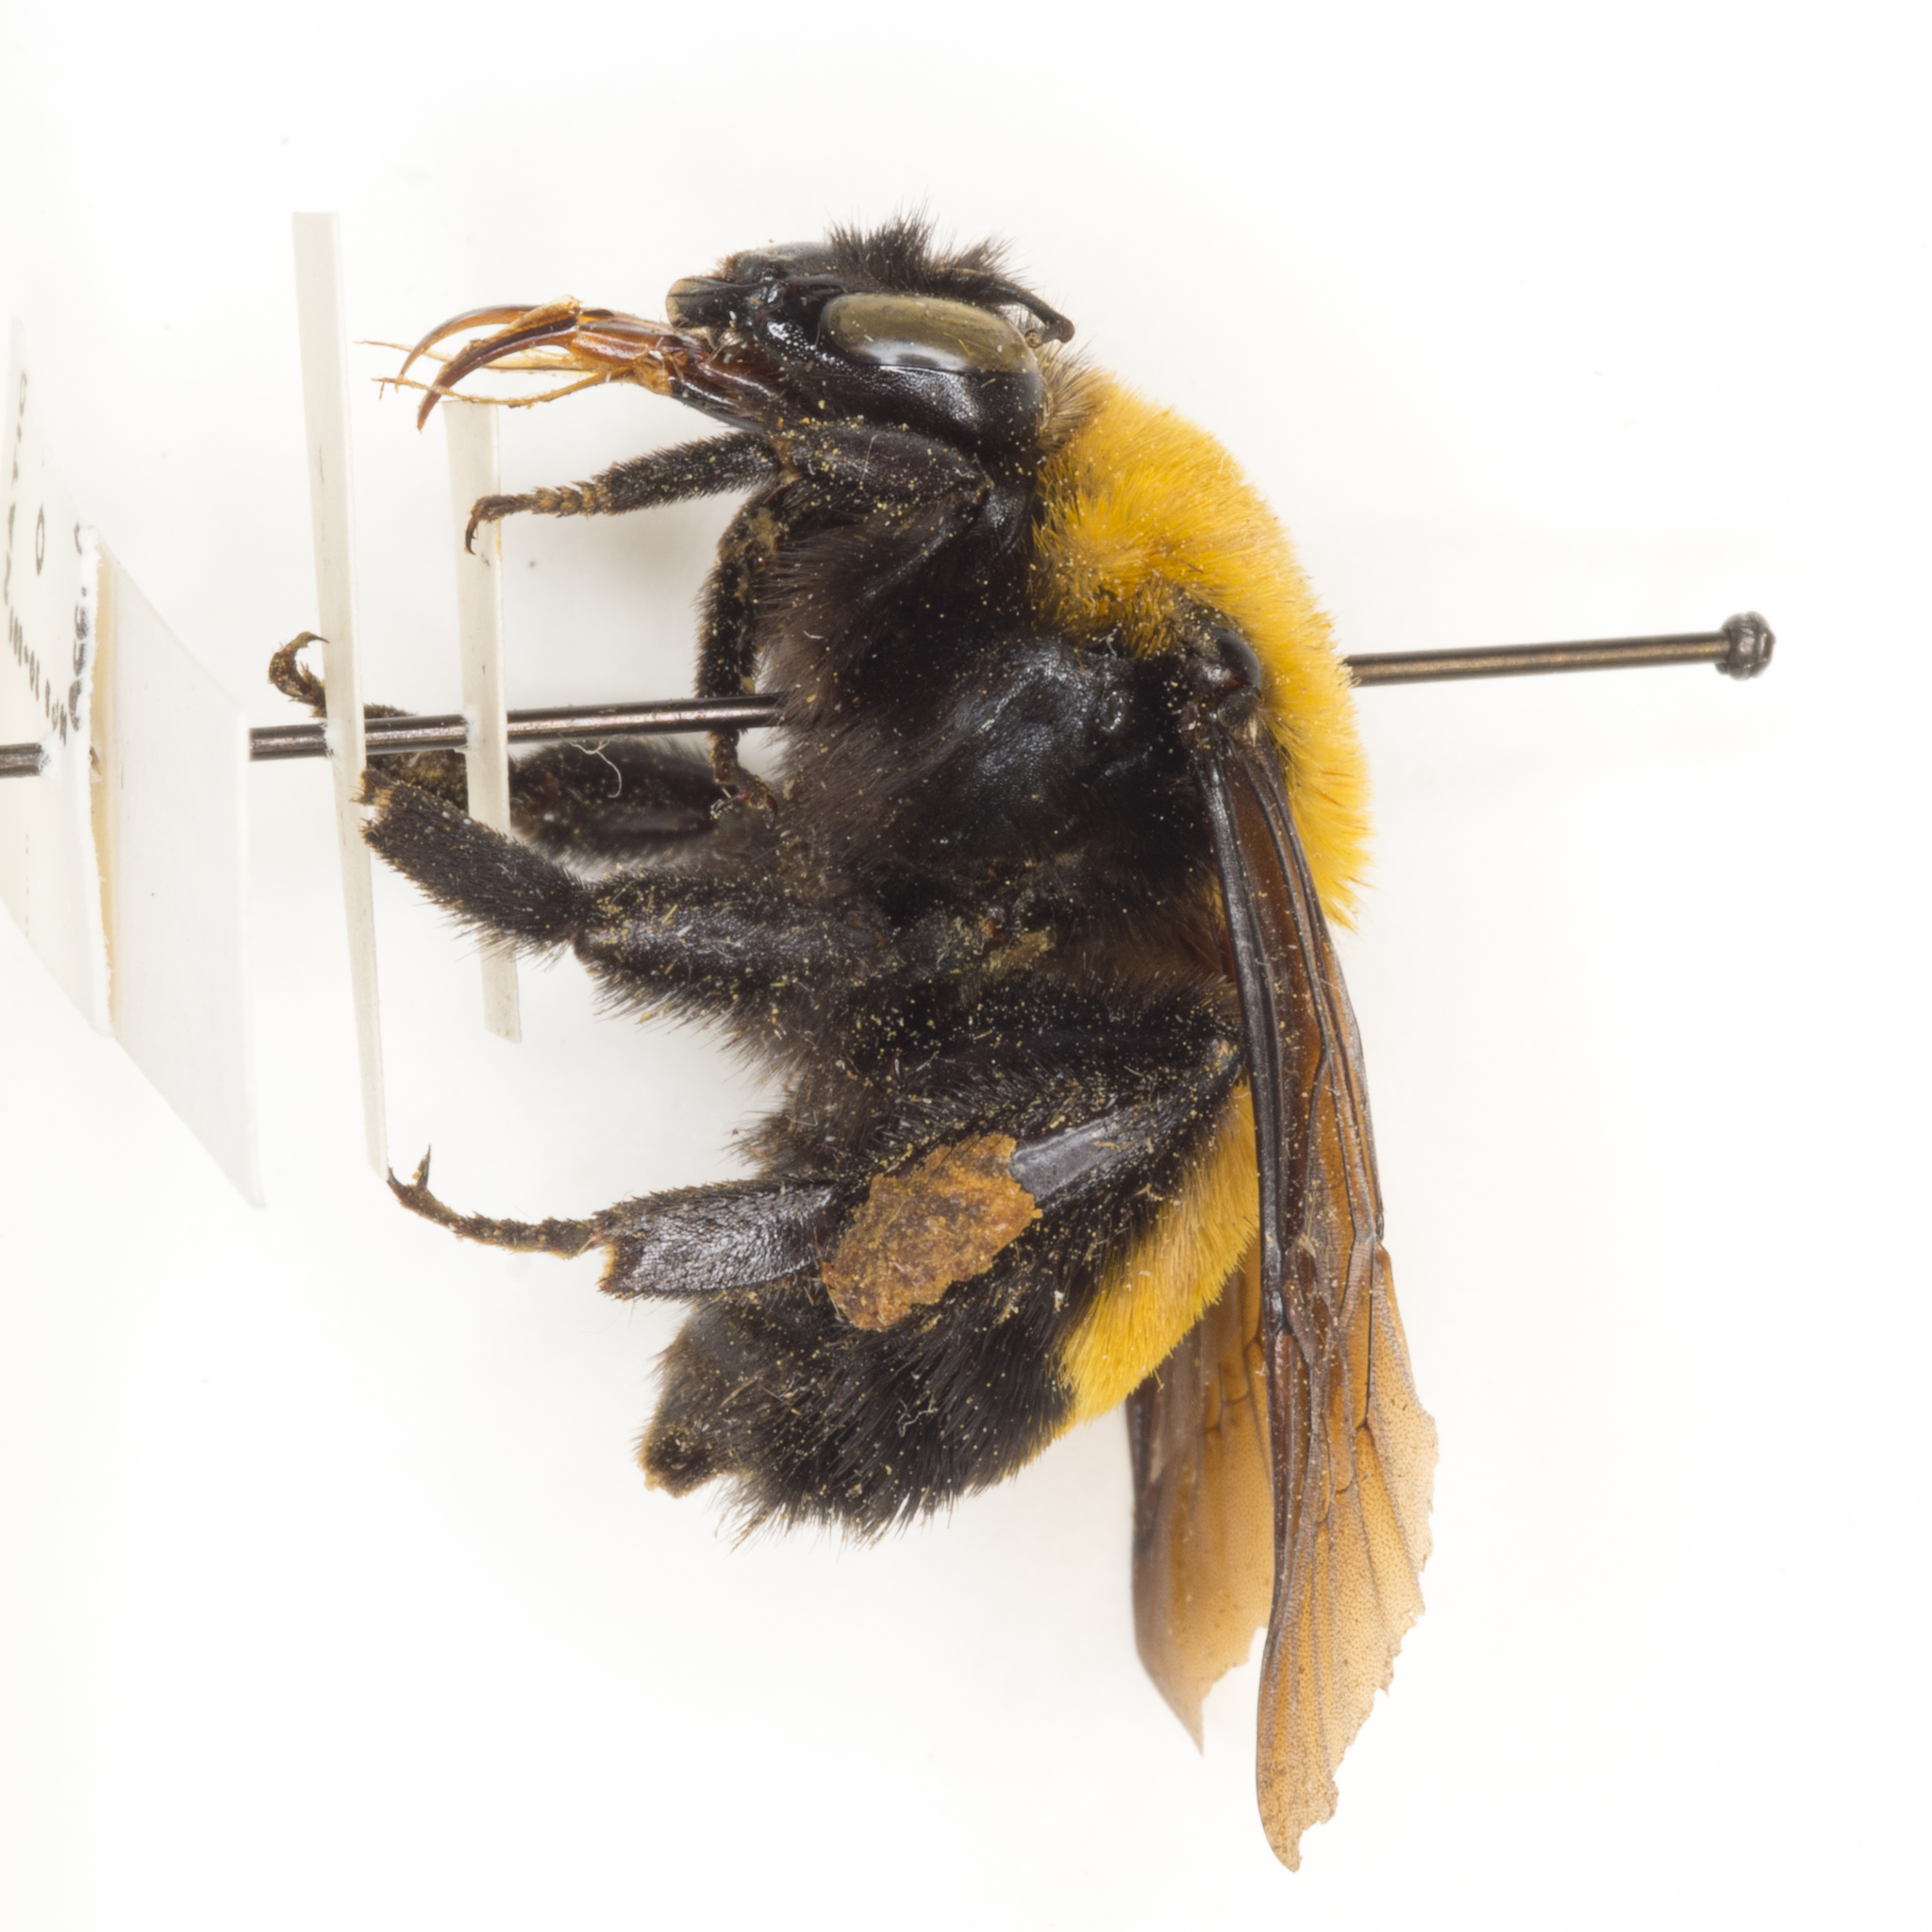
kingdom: Animalia
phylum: Arthropoda
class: Insecta
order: Hymenoptera
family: Apidae
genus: Bombus
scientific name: Bombus morrisoni
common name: Morrison bumble bee
